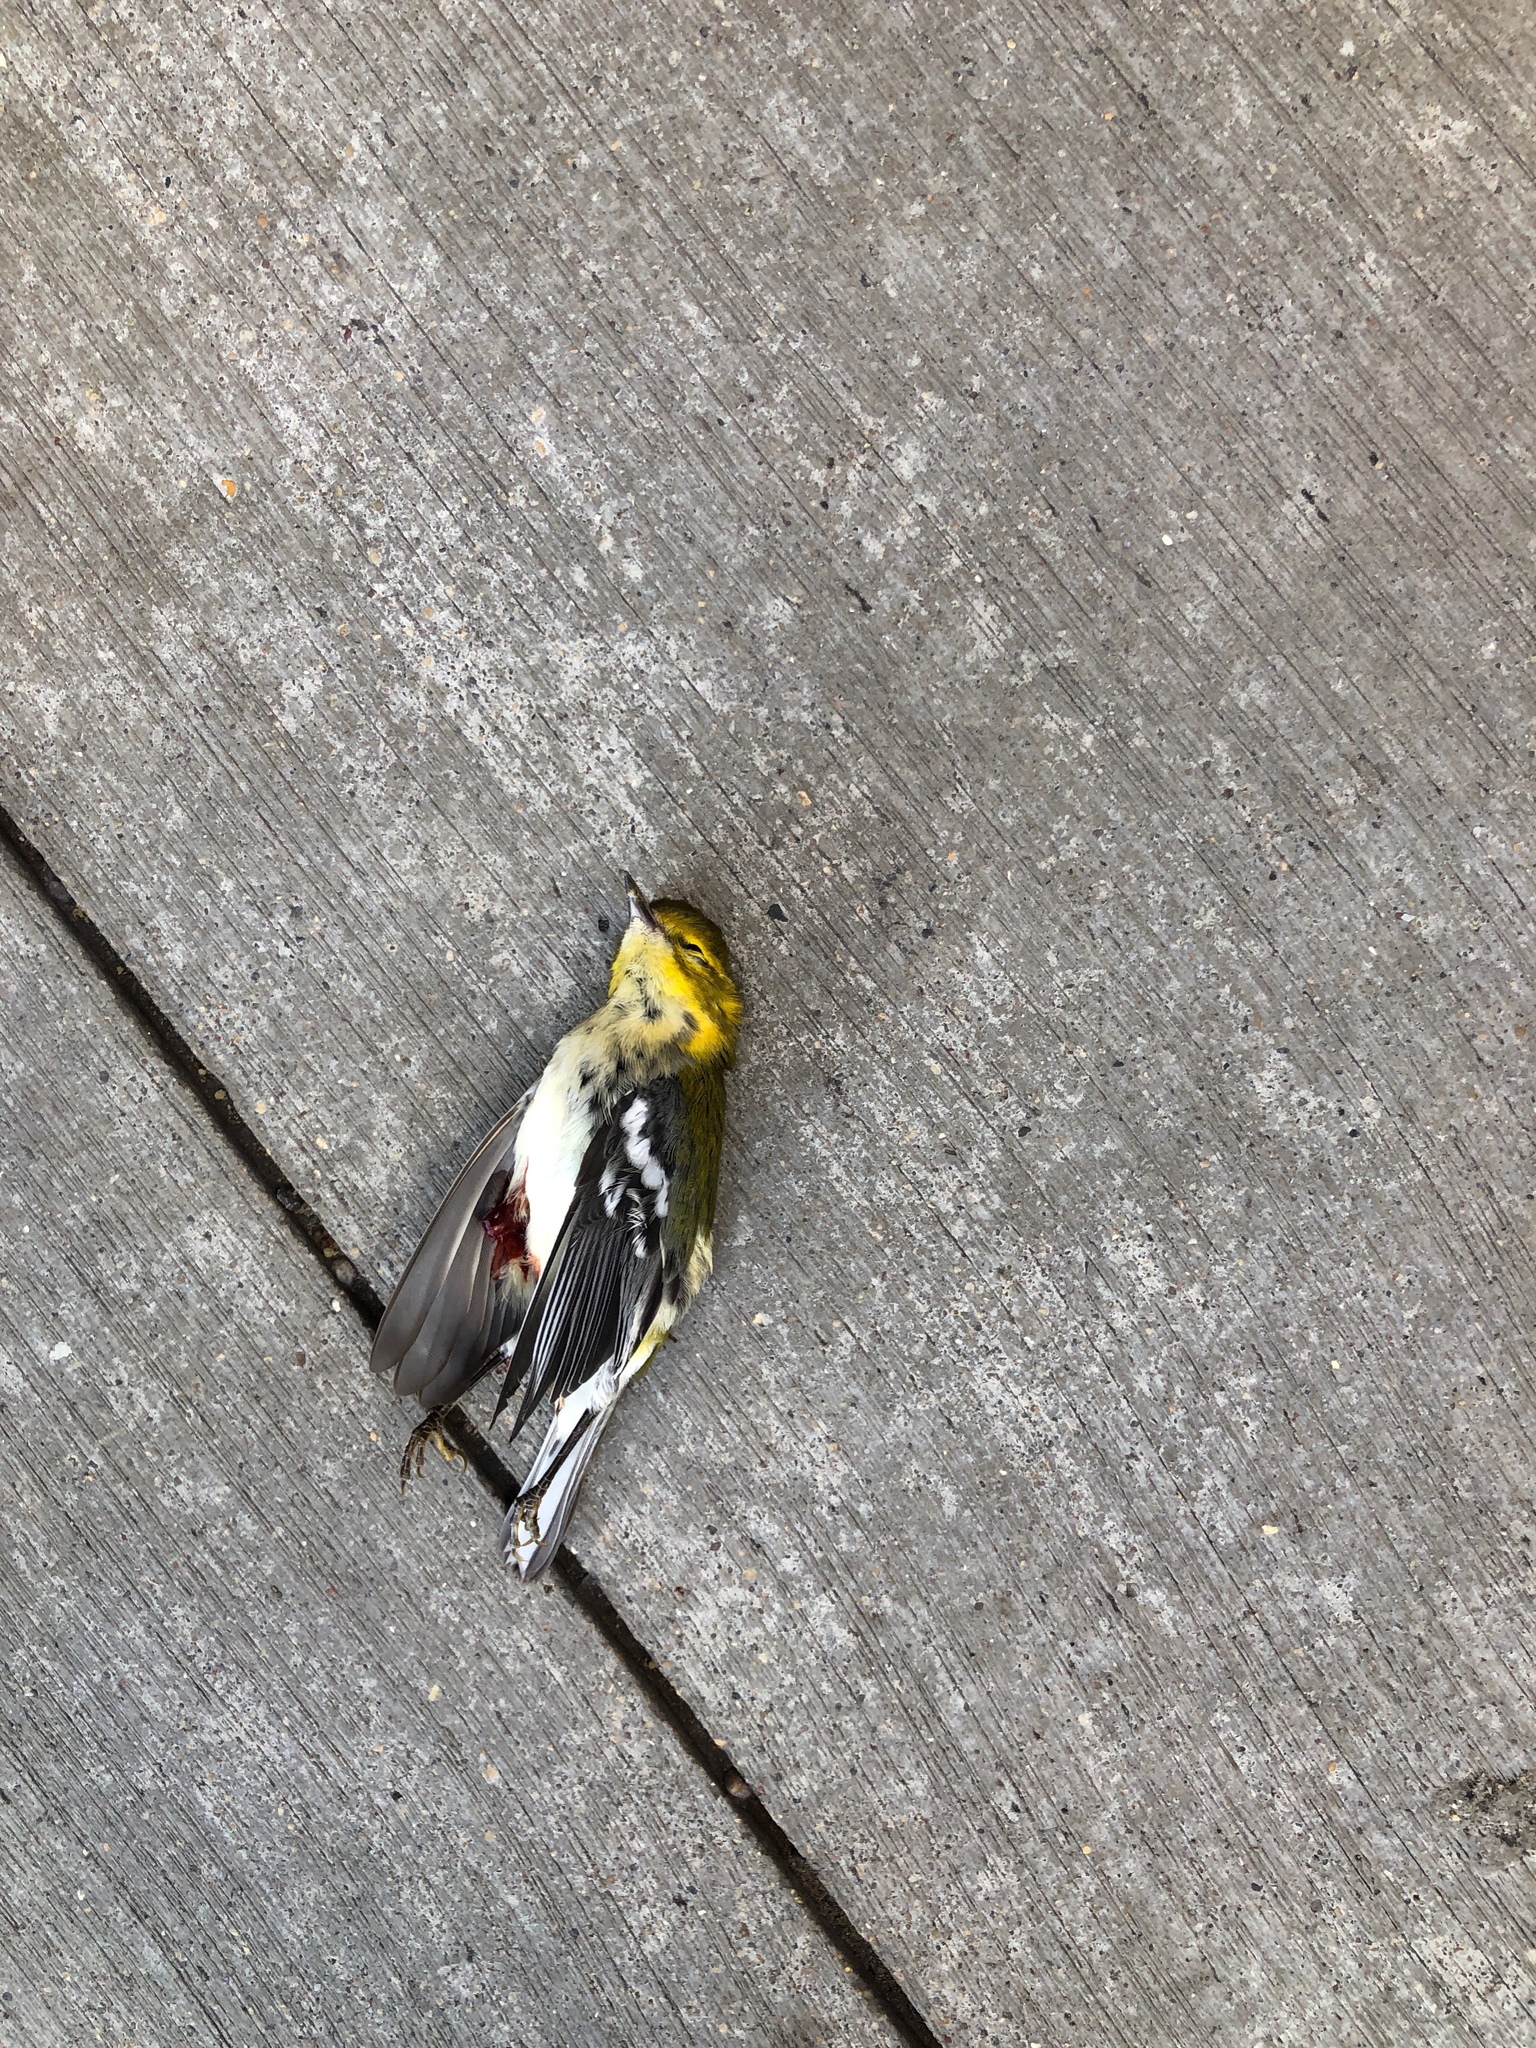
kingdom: Animalia
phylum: Chordata
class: Aves
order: Passeriformes
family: Parulidae
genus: Setophaga
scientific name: Setophaga virens
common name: Black-throated green warbler
